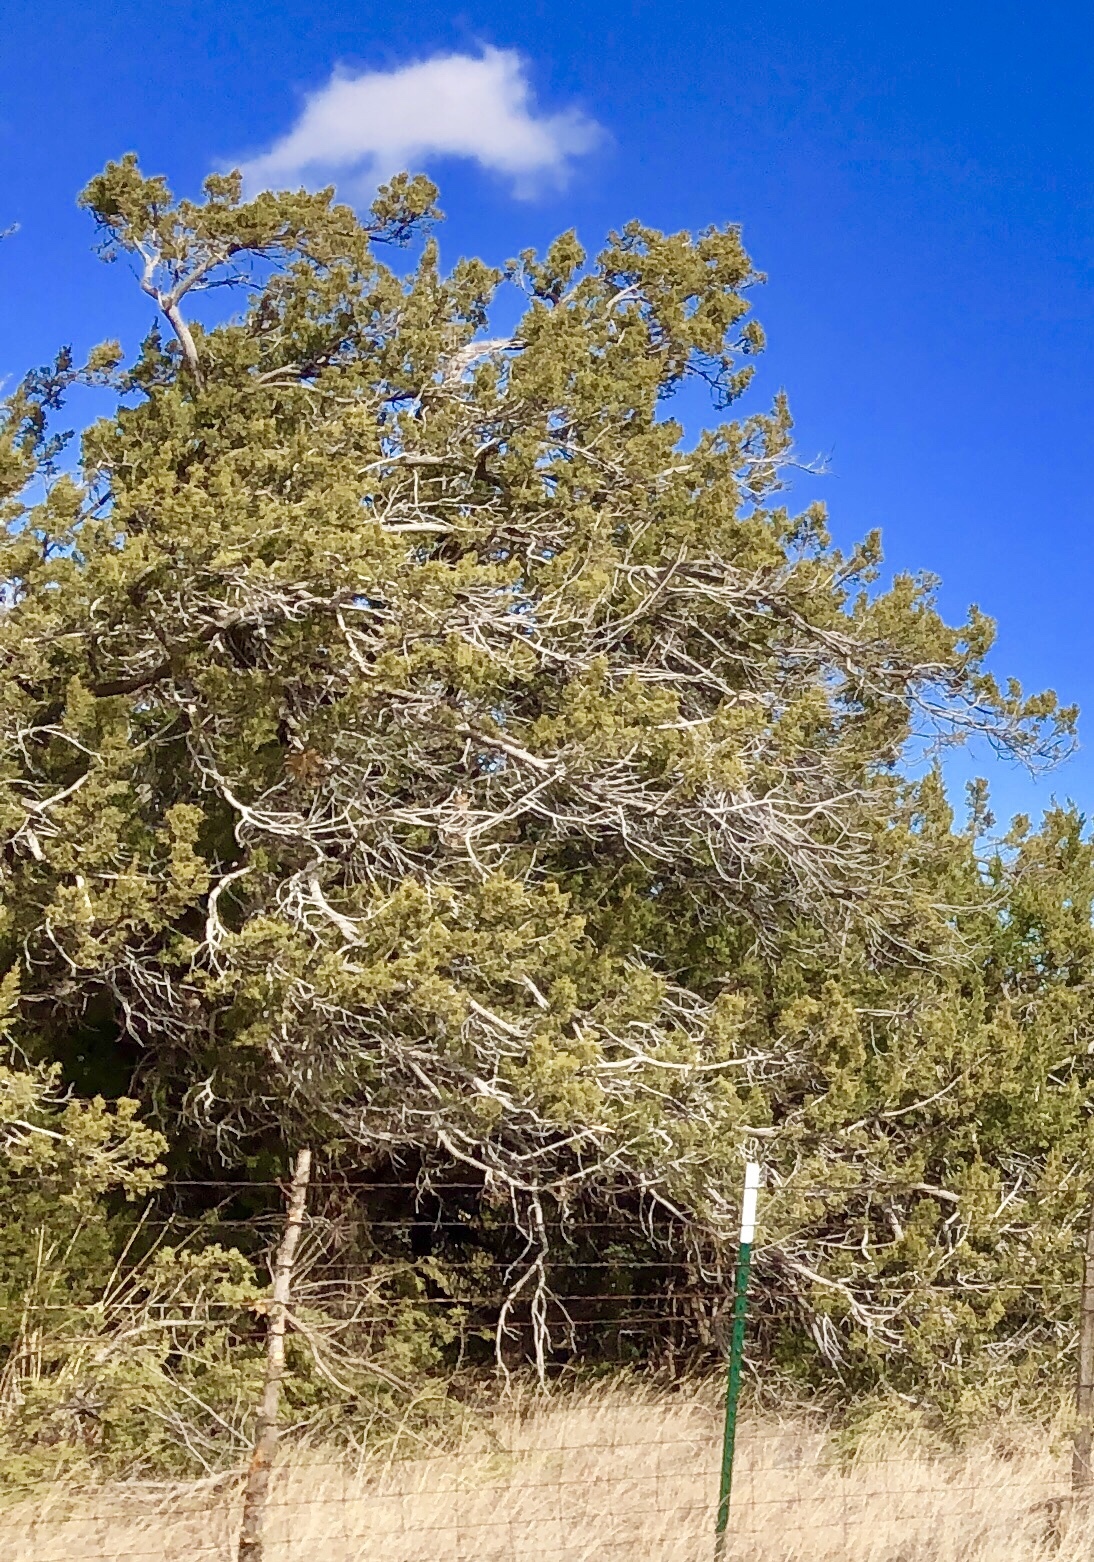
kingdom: Plantae
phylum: Tracheophyta
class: Pinopsida
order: Pinales
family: Cupressaceae
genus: Juniperus
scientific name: Juniperus monosperma
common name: One-seed juniper
